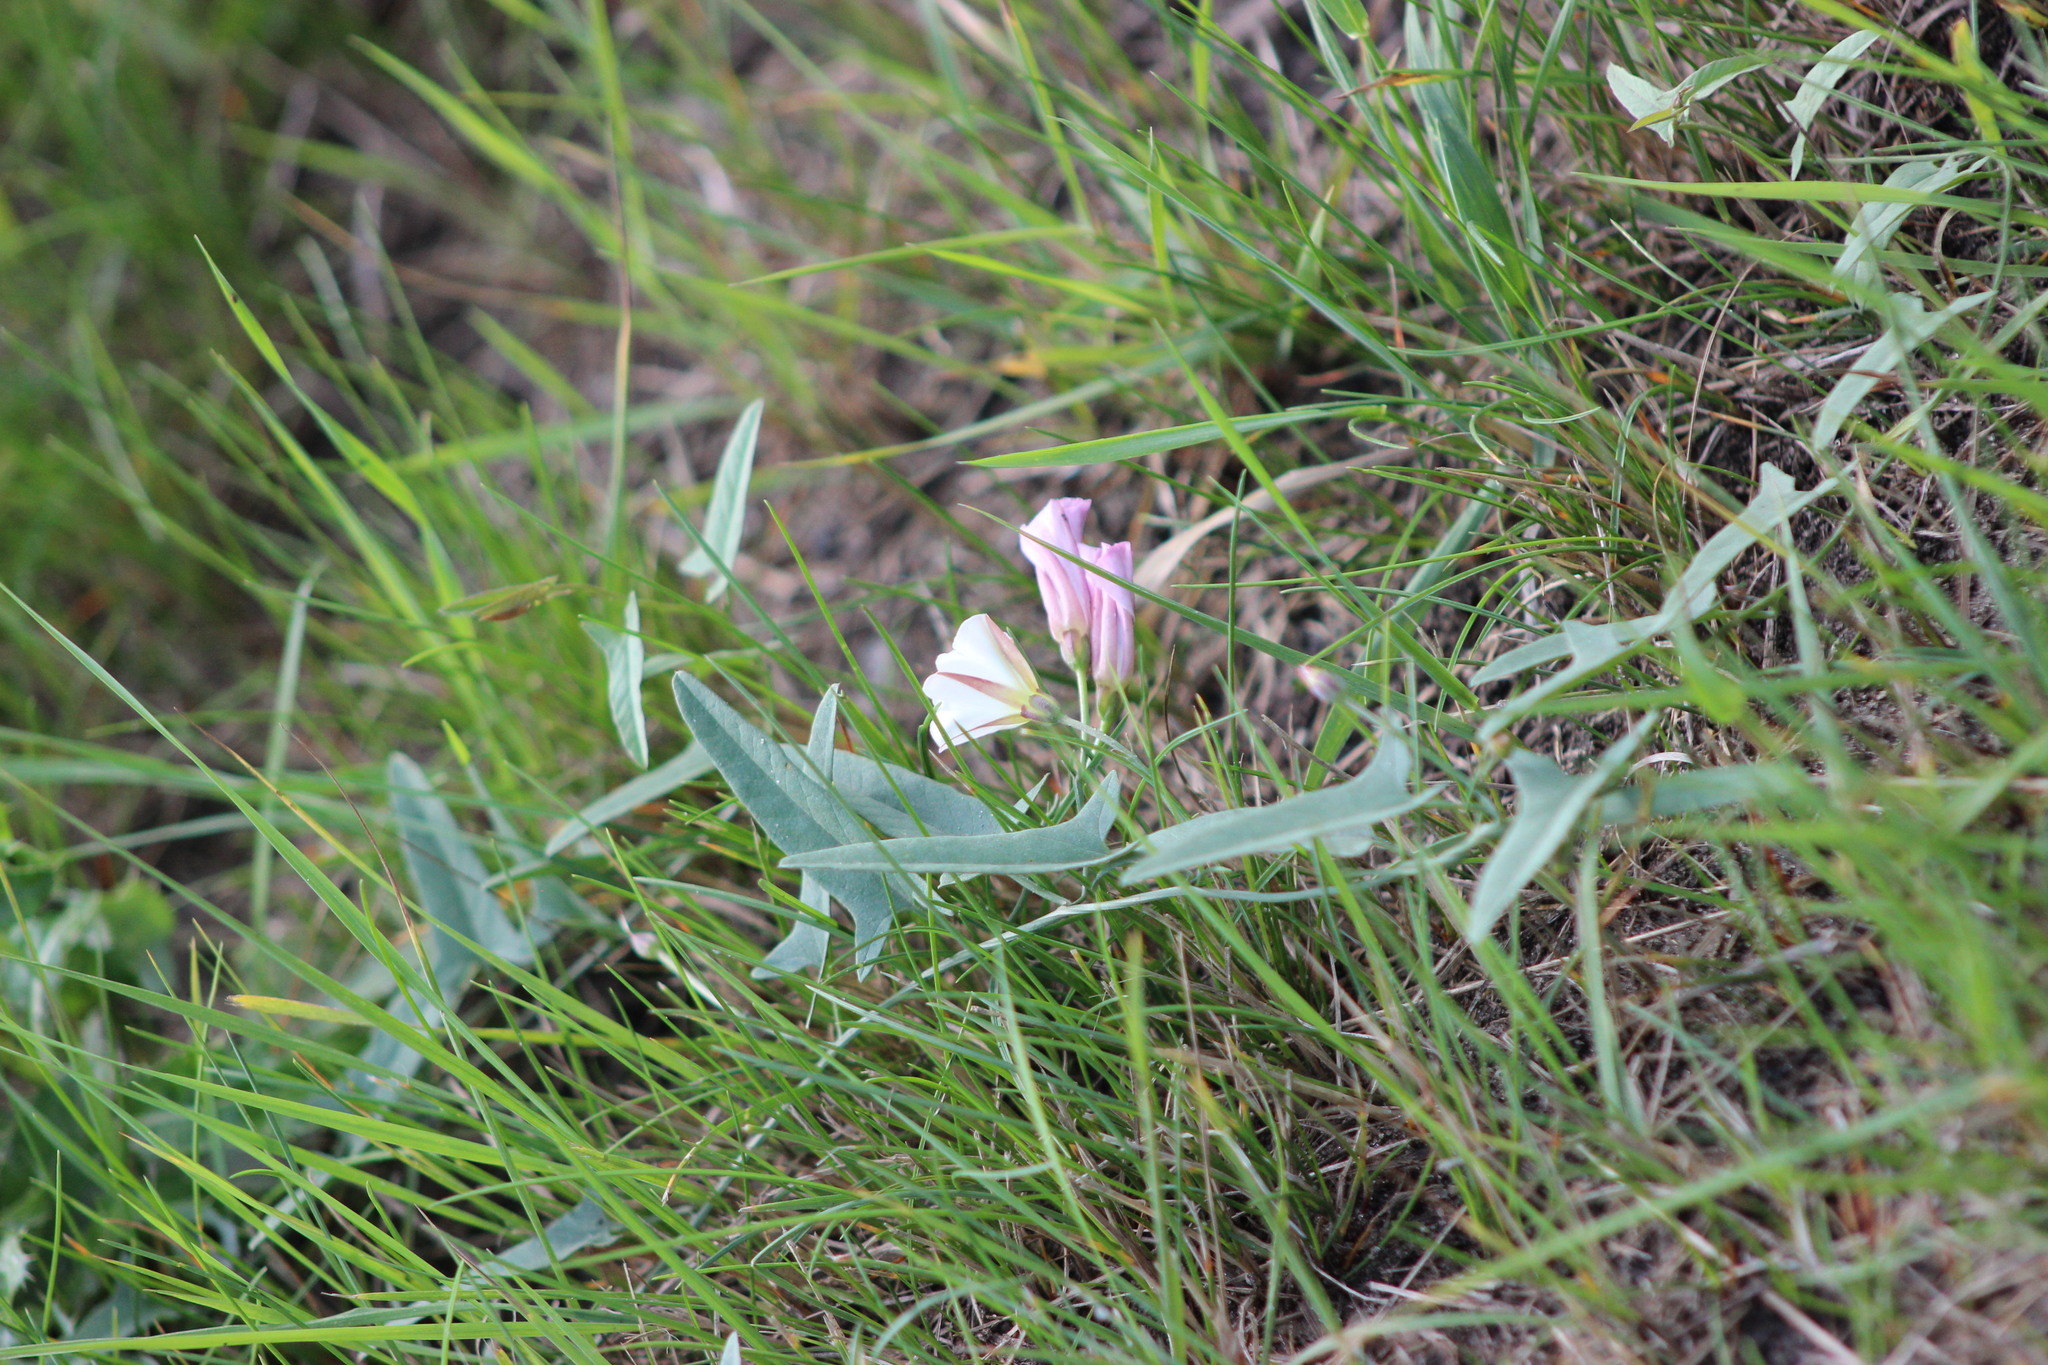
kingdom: Plantae
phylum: Tracheophyta
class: Magnoliopsida
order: Solanales
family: Convolvulaceae
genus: Convolvulus
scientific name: Convolvulus arvensis
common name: Field bindweed
